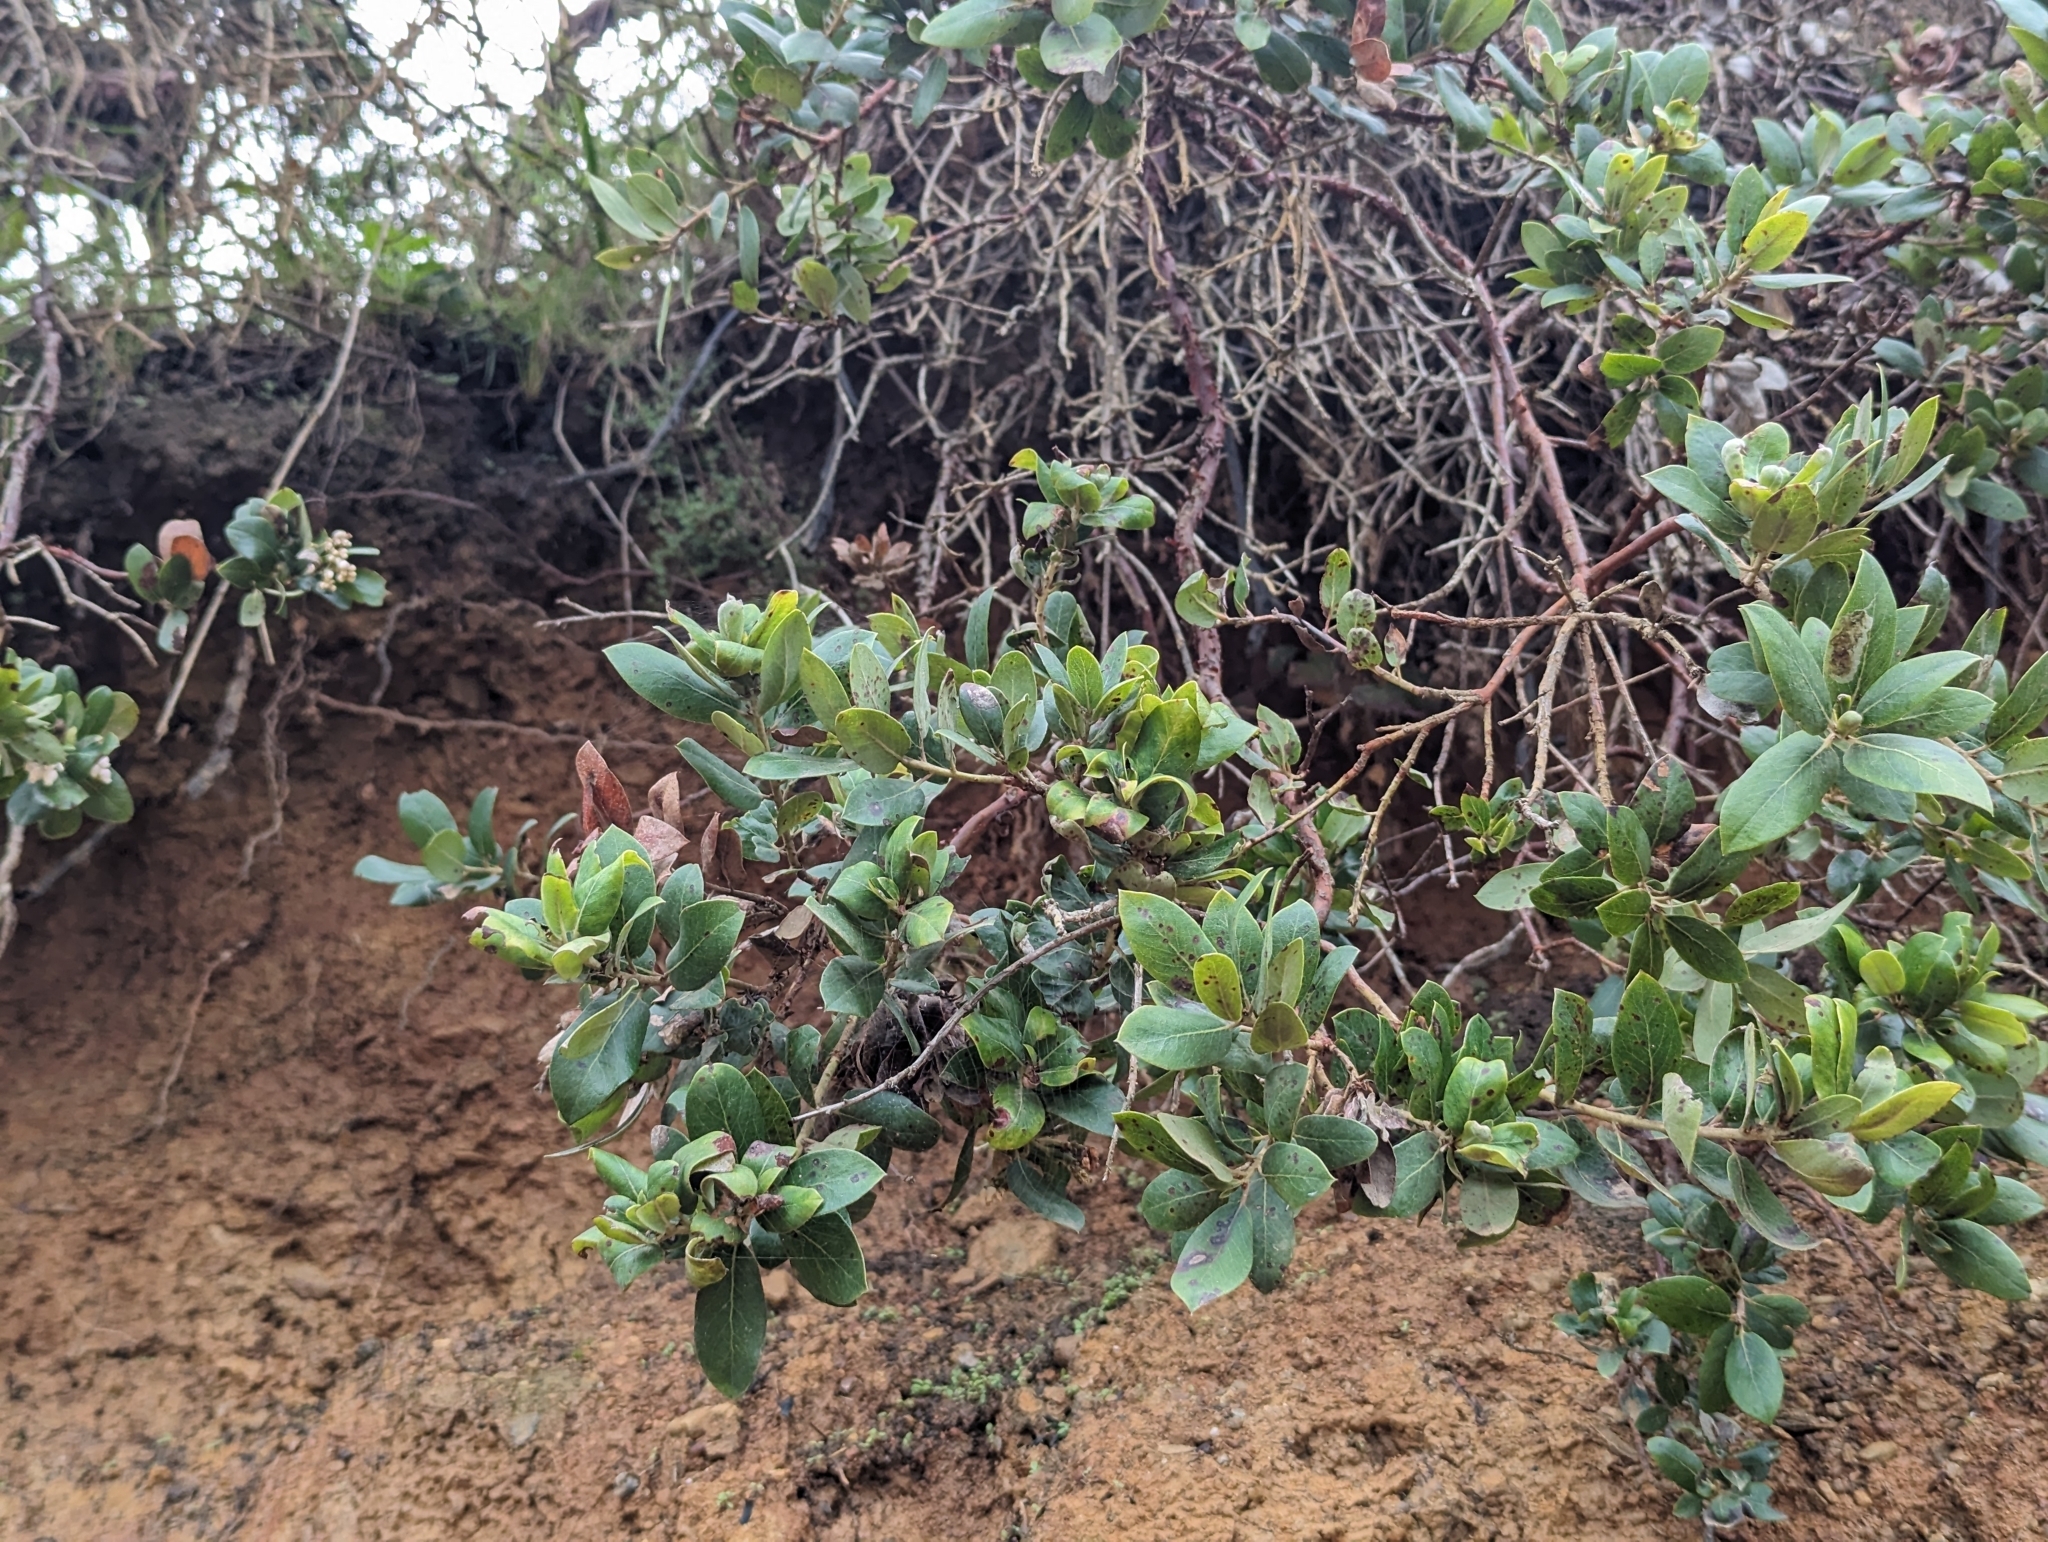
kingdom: Plantae
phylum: Tracheophyta
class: Magnoliopsida
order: Ericales
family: Ericaceae
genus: Arctostaphylos
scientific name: Arctostaphylos tomentosa
